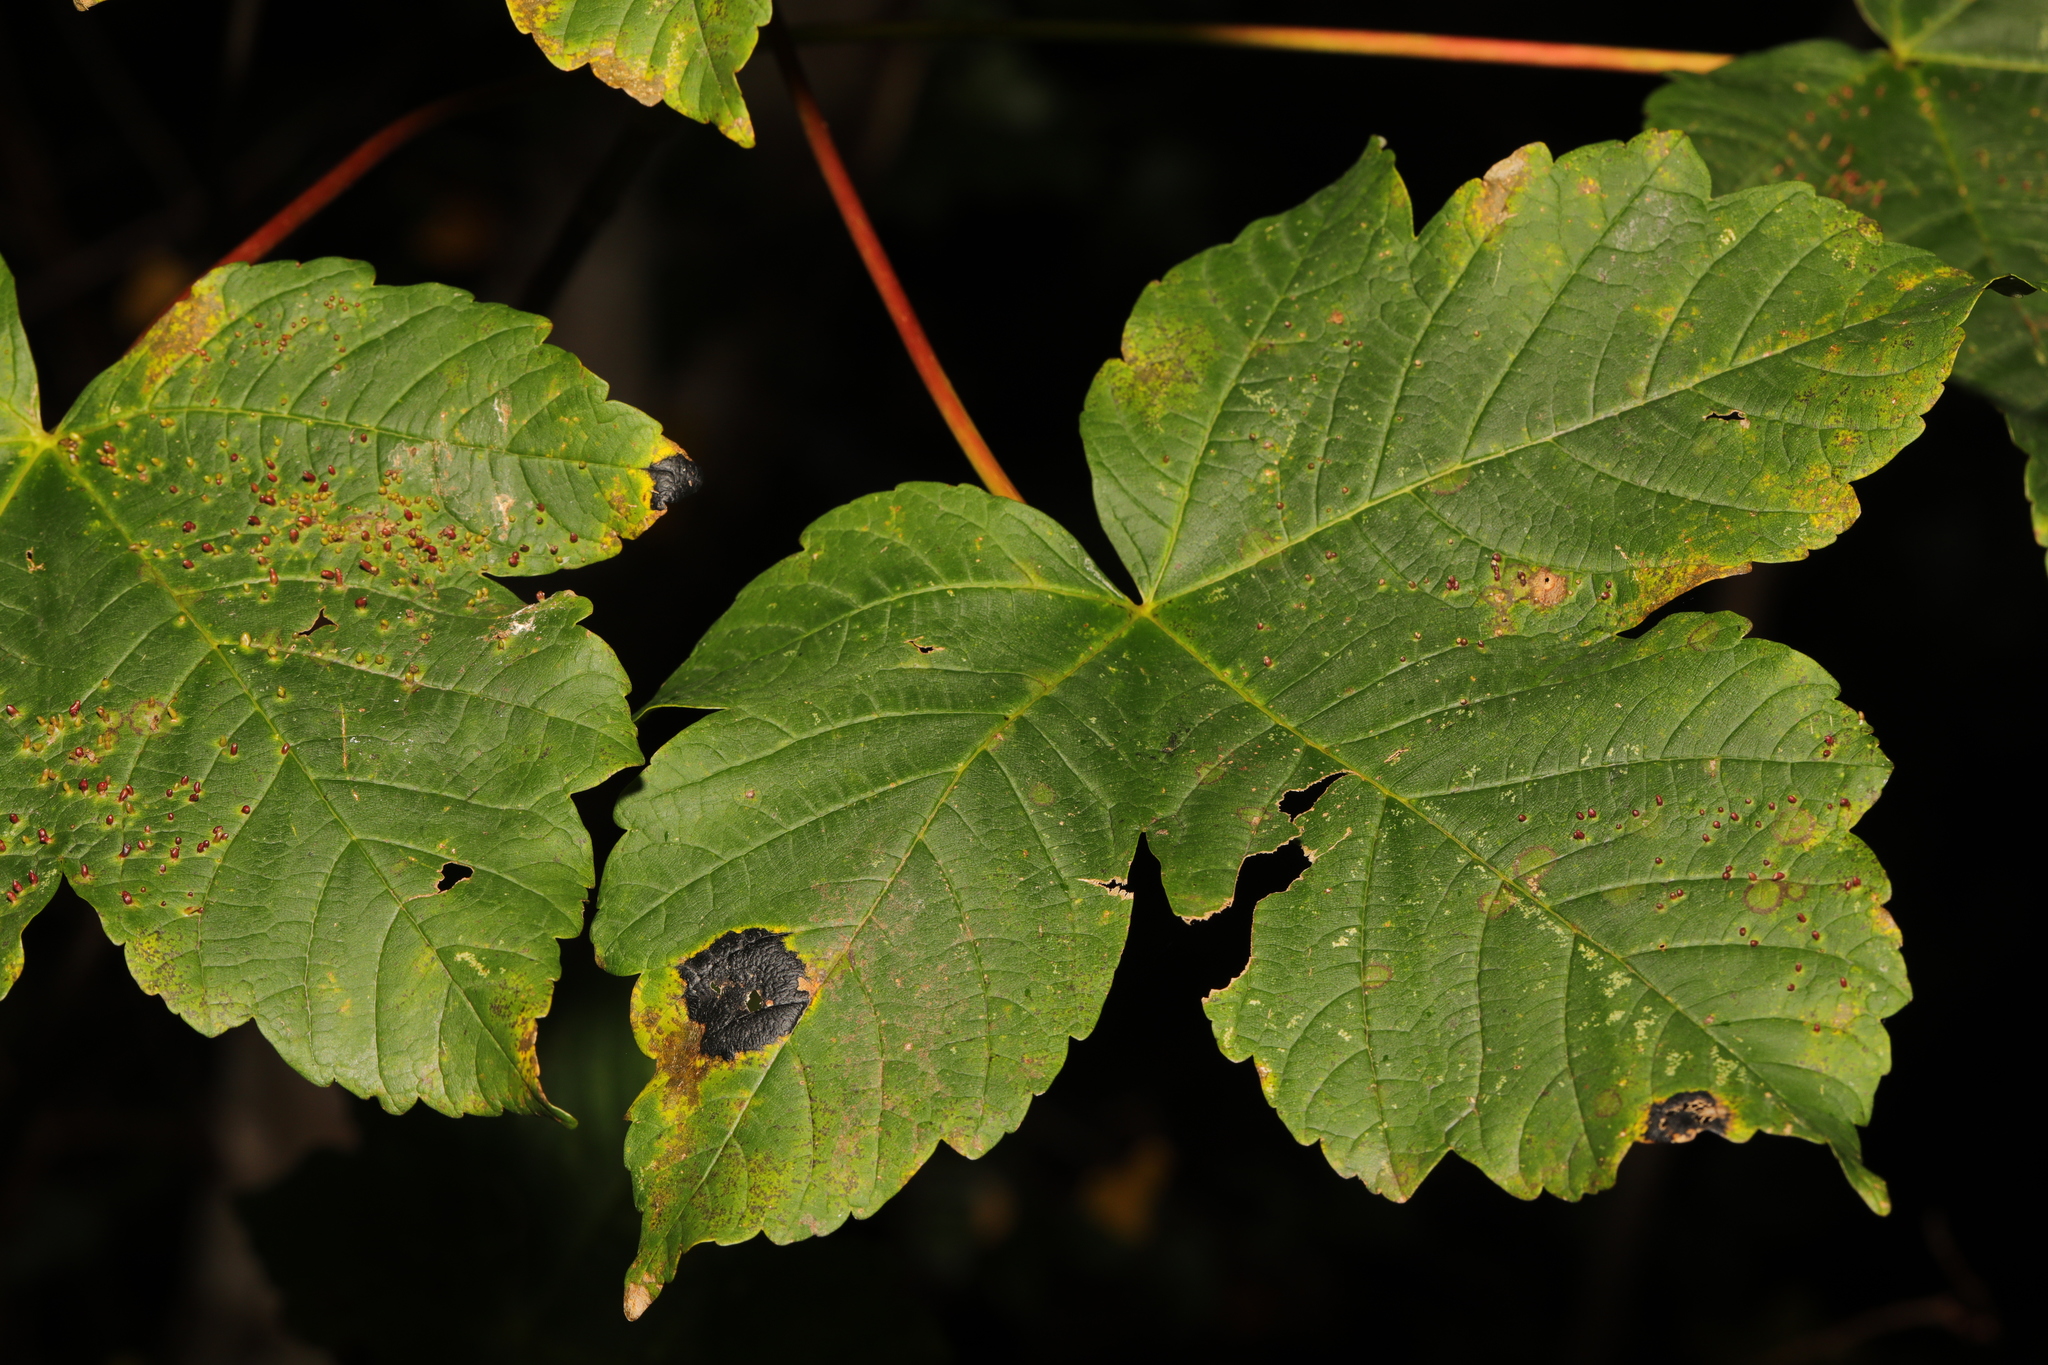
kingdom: Plantae
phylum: Tracheophyta
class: Magnoliopsida
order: Sapindales
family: Sapindaceae
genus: Acer
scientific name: Acer pseudoplatanus
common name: Sycamore
